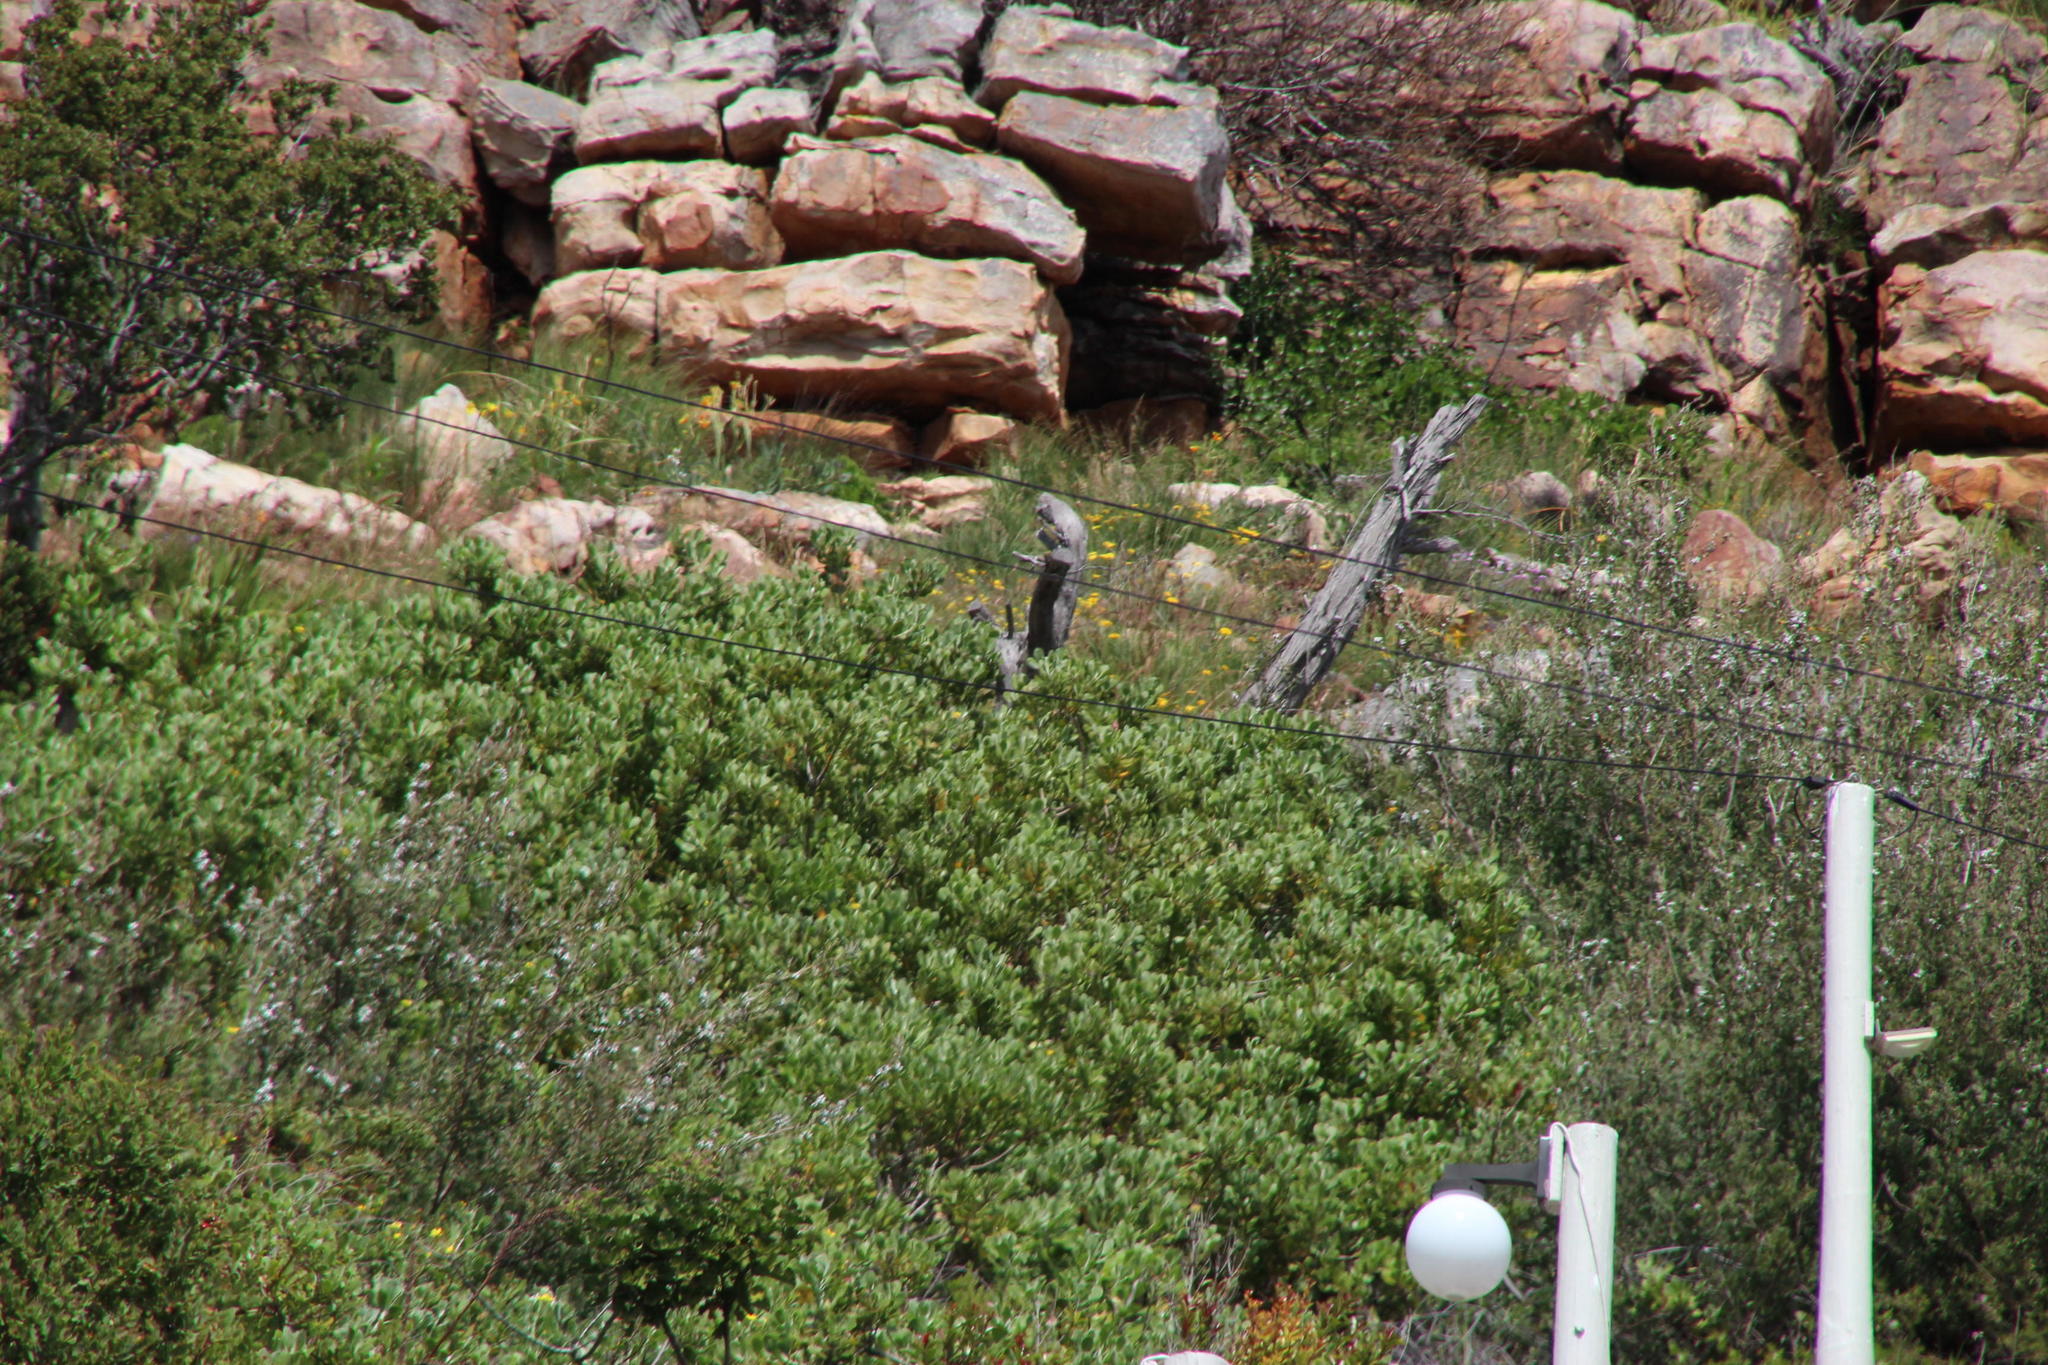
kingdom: Plantae
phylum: Tracheophyta
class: Magnoliopsida
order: Asterales
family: Asteraceae
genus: Osteospermum
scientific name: Osteospermum moniliferum
